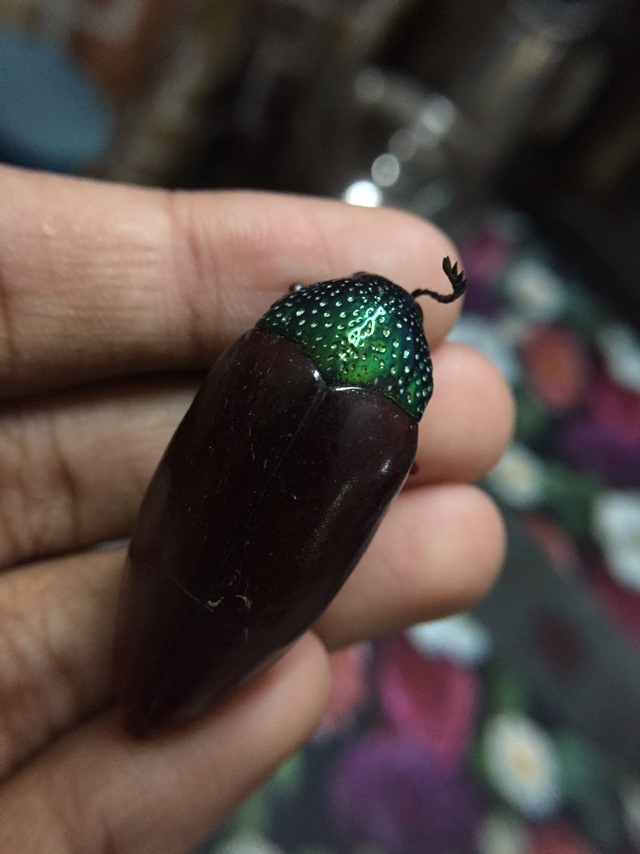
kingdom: Animalia
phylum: Arthropoda
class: Insecta
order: Coleoptera
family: Buprestidae
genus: Sternocera
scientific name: Sternocera chrysis
